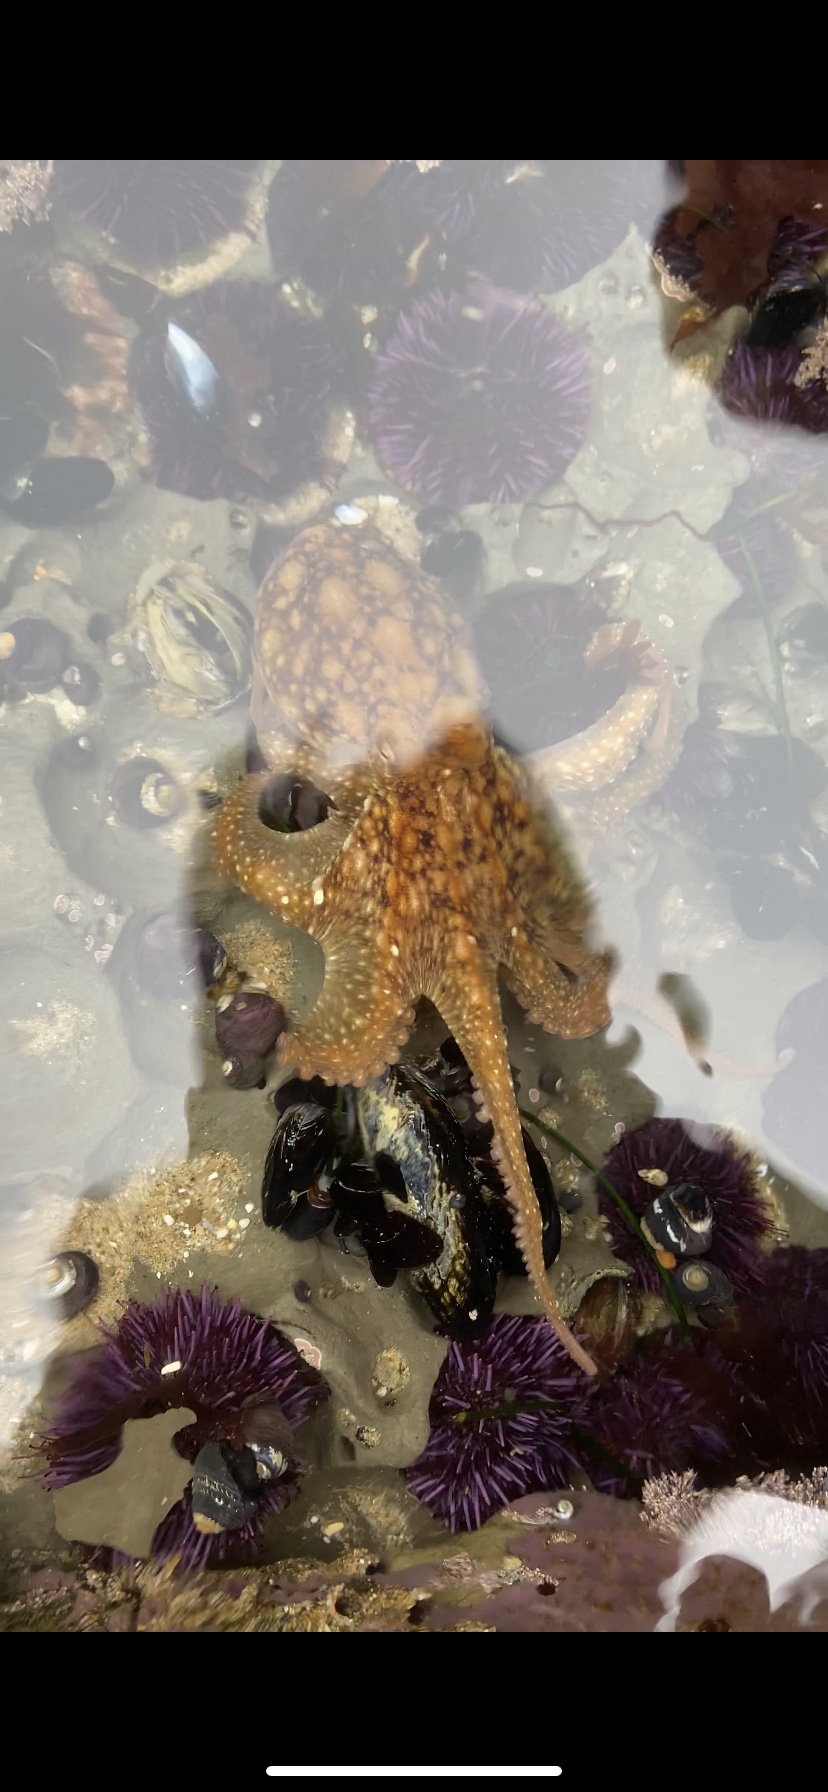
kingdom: Animalia
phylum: Mollusca
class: Cephalopoda
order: Octopoda
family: Octopodidae
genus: Octopus
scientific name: Octopus rubescens
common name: East pacific red octopus
